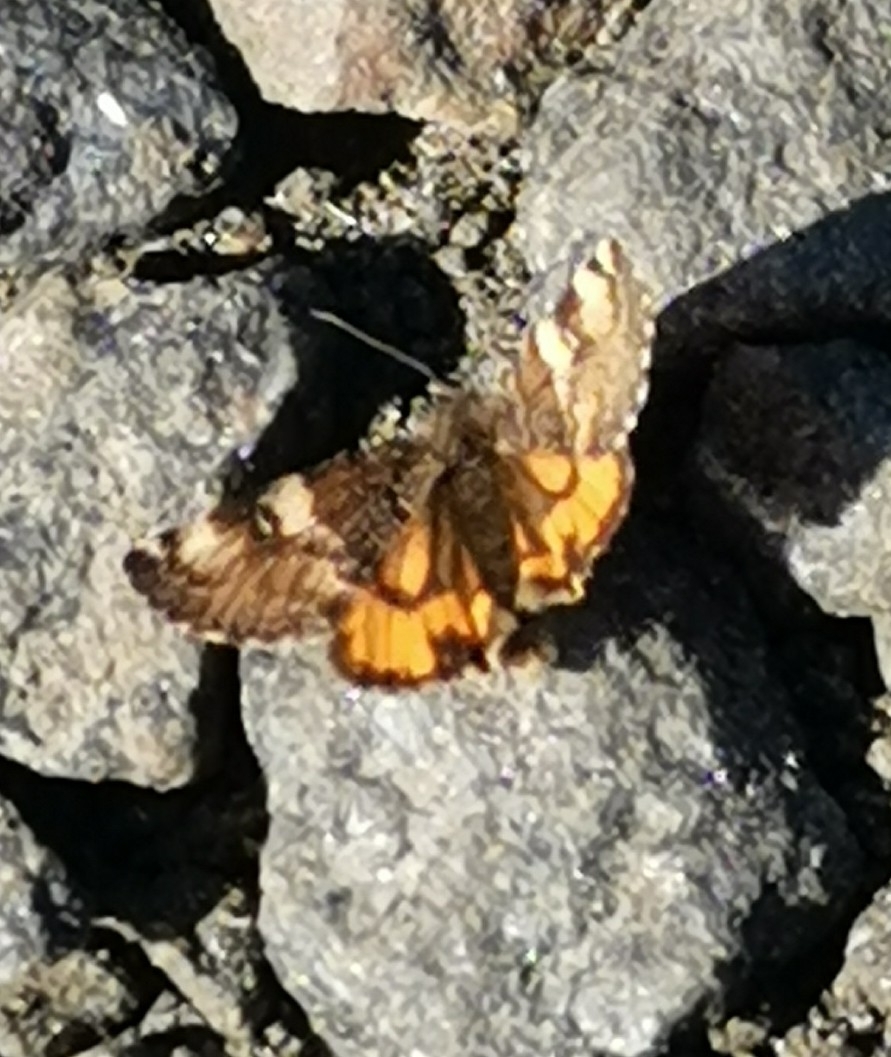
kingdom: Animalia
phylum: Arthropoda
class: Insecta
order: Lepidoptera
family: Geometridae
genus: Archiearis
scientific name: Archiearis parthenias
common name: Orange underwing
